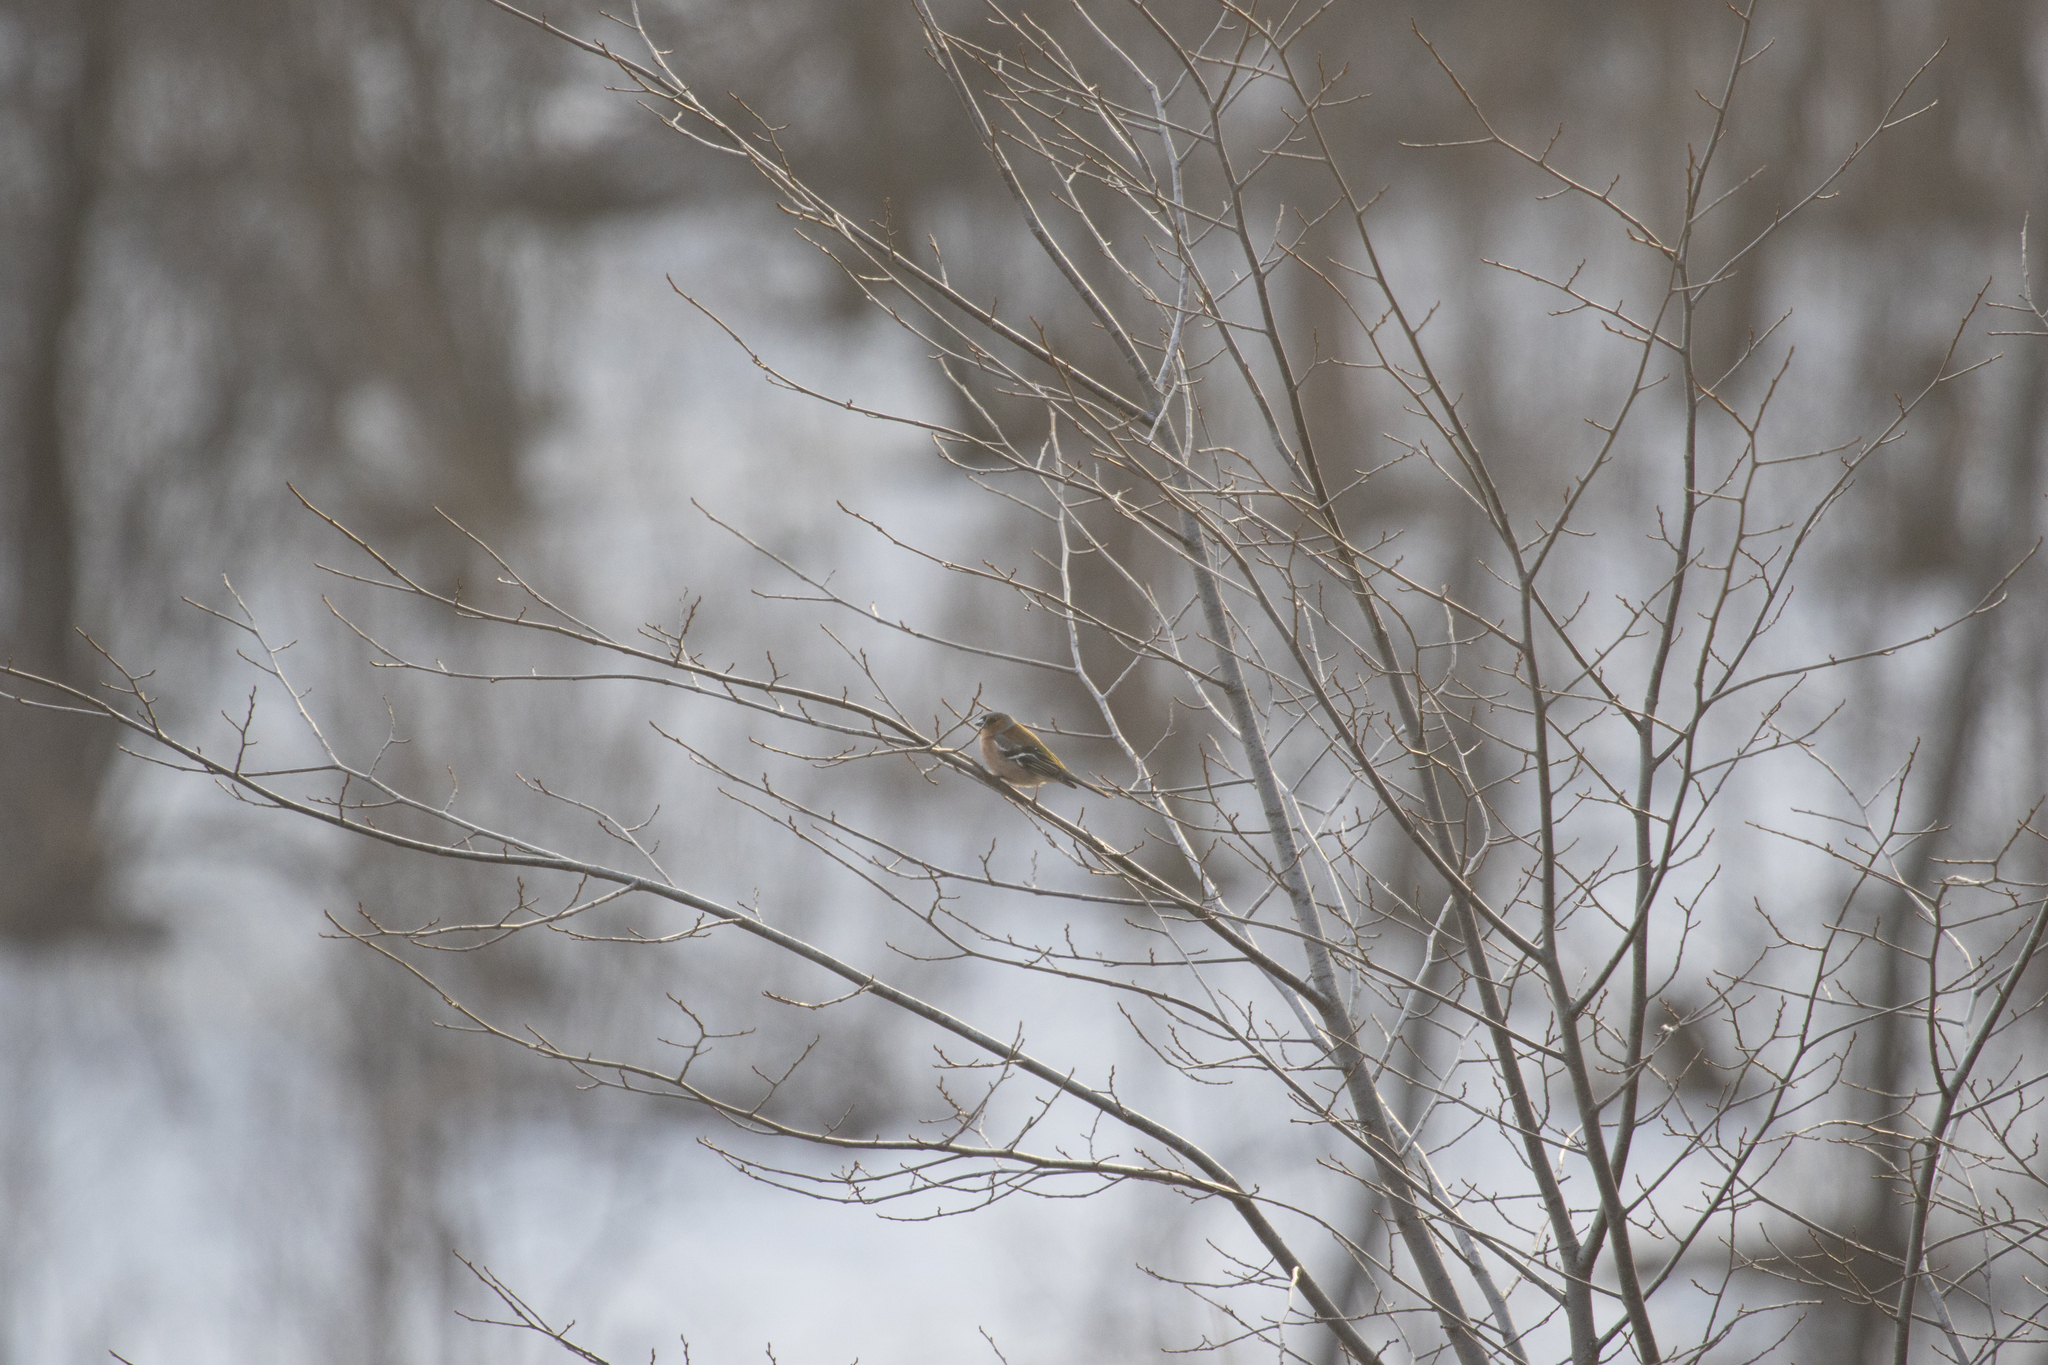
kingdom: Animalia
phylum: Chordata
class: Aves
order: Passeriformes
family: Fringillidae
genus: Fringilla
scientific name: Fringilla coelebs
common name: Common chaffinch
